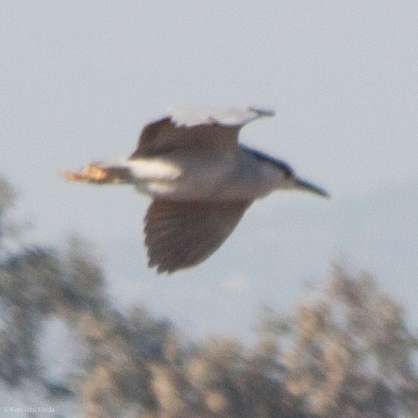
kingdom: Animalia
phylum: Chordata
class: Aves
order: Pelecaniformes
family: Ardeidae
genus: Nycticorax
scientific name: Nycticorax nycticorax
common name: Black-crowned night heron
